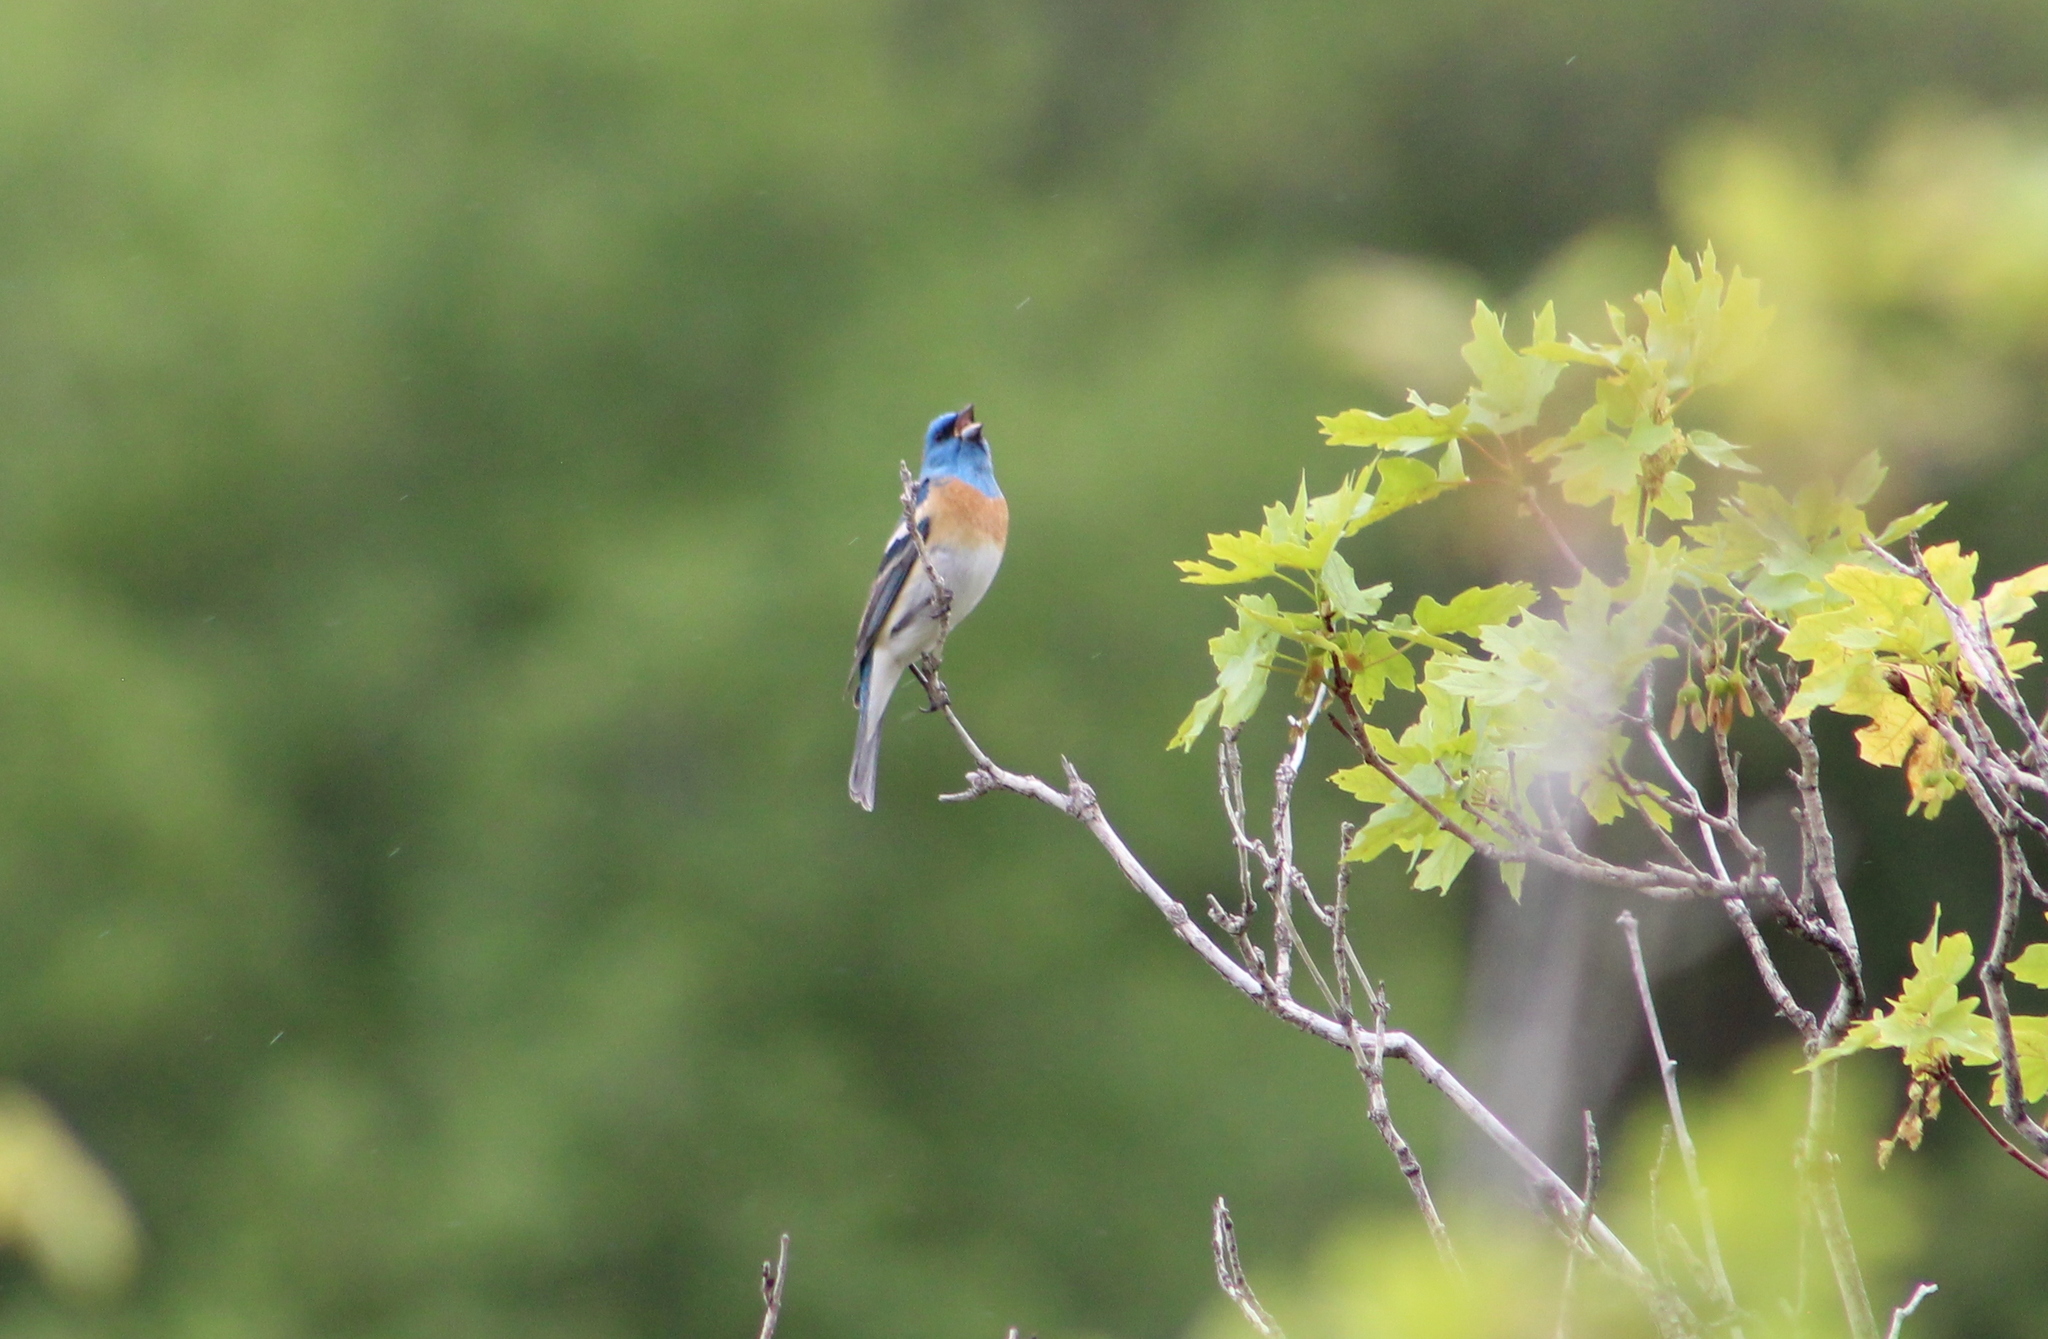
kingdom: Animalia
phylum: Chordata
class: Aves
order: Passeriformes
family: Cardinalidae
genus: Passerina
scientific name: Passerina amoena
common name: Lazuli bunting
